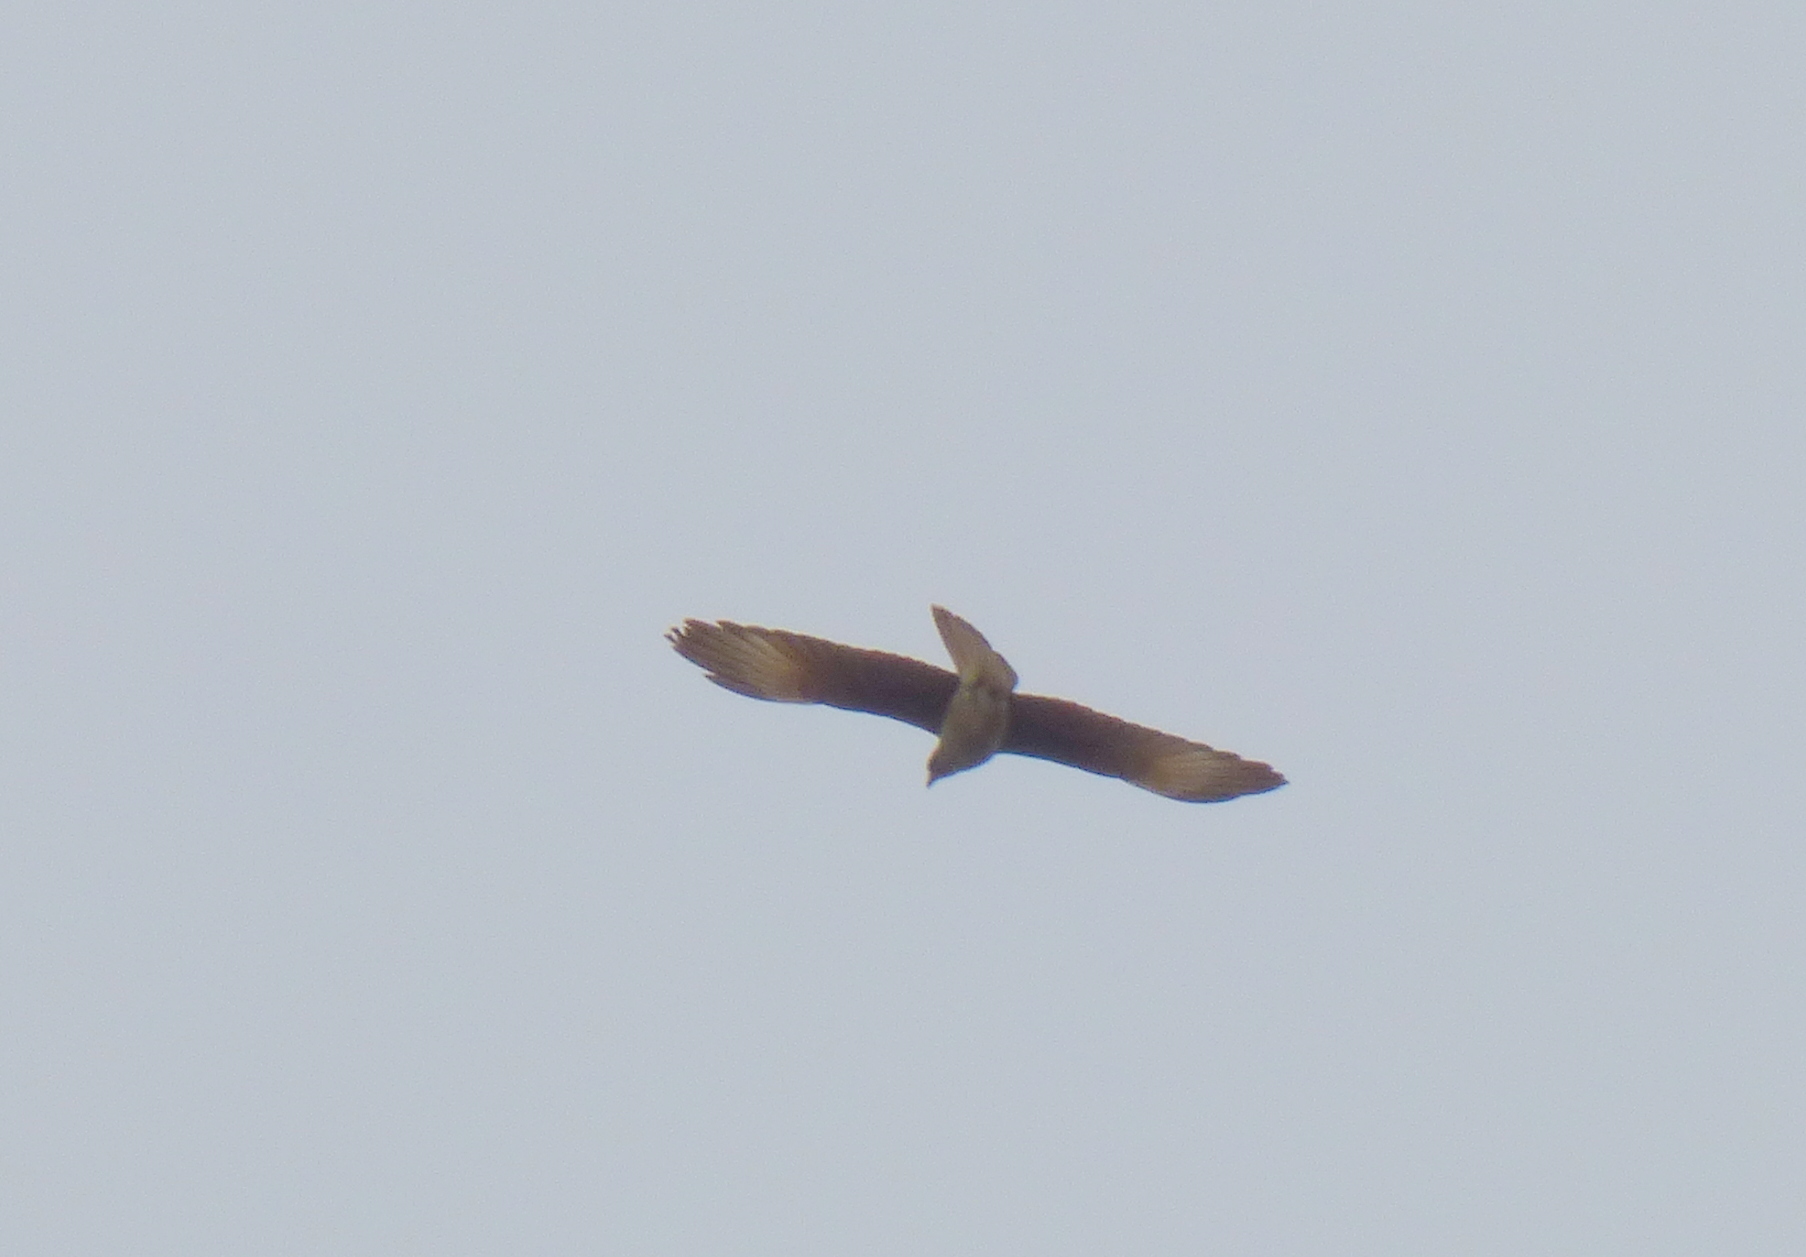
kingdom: Animalia
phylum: Chordata
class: Aves
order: Falconiformes
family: Falconidae
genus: Daptrius
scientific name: Daptrius
